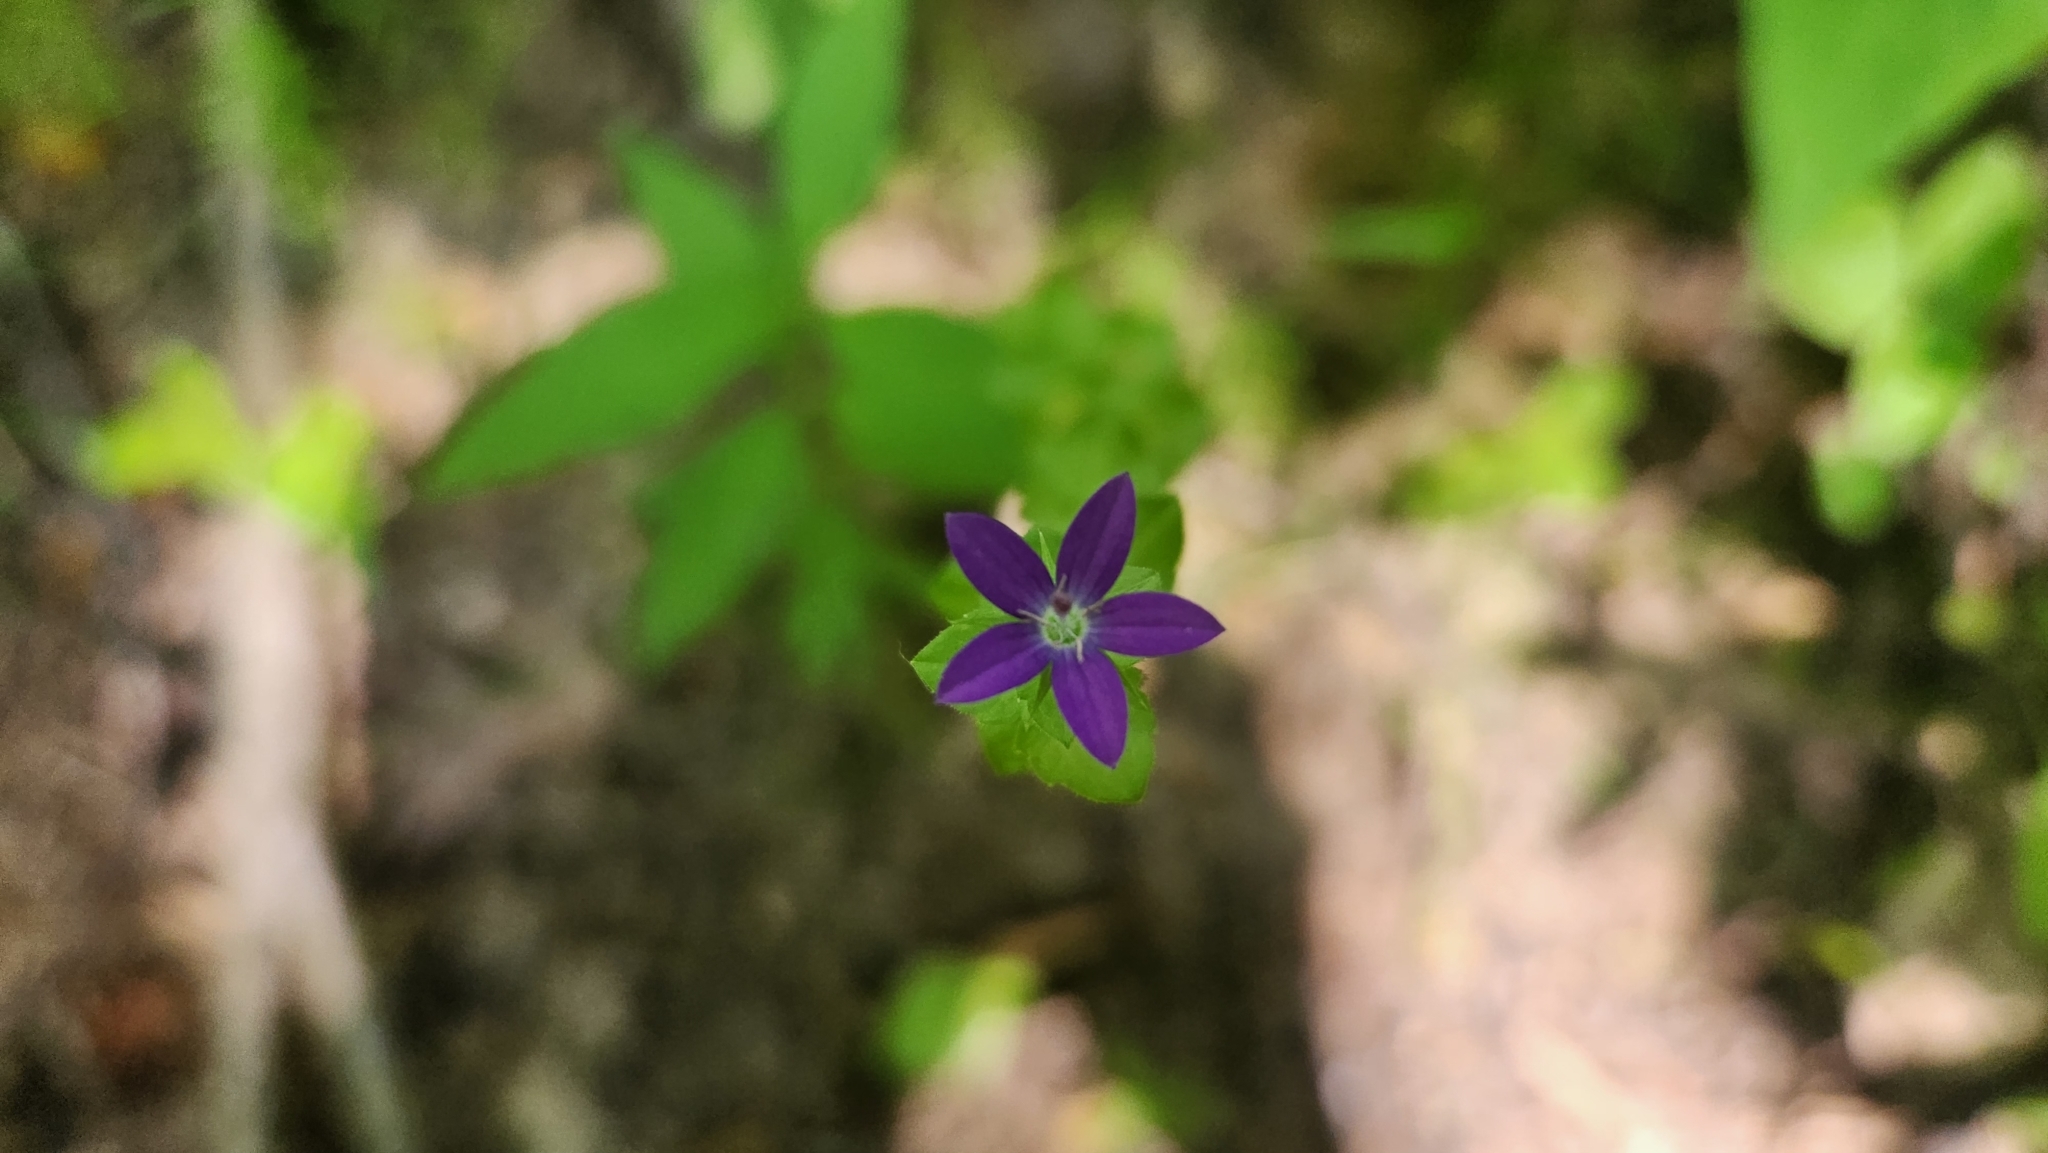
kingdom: Plantae
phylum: Tracheophyta
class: Magnoliopsida
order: Asterales
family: Campanulaceae
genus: Triodanis
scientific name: Triodanis biflora
